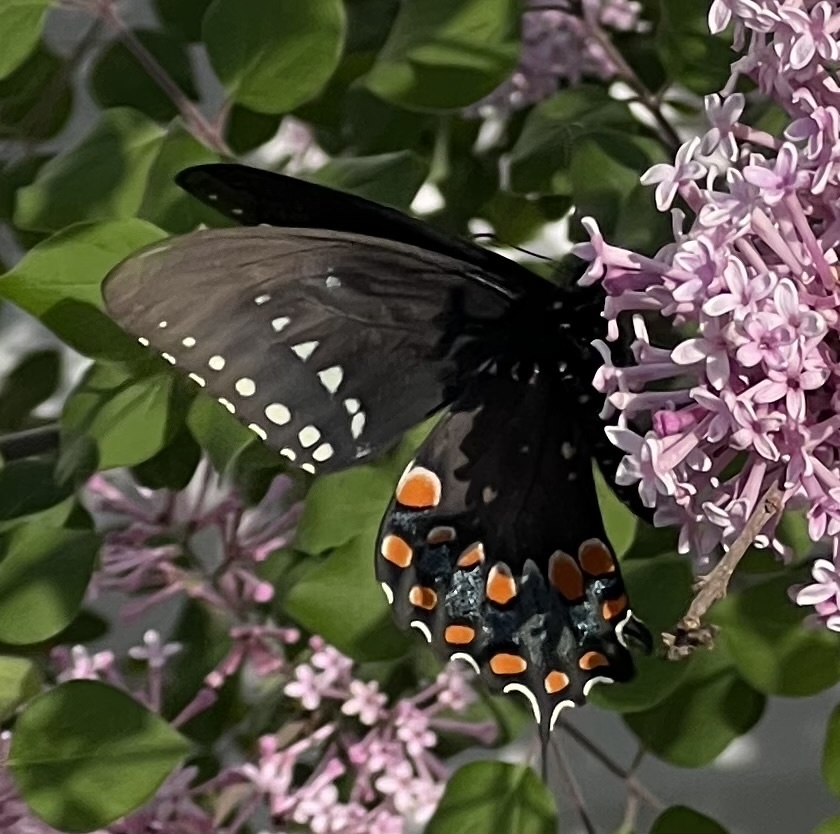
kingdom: Animalia
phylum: Arthropoda
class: Insecta
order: Lepidoptera
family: Papilionidae
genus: Papilio
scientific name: Papilio troilus
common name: Spicebush swallowtail
